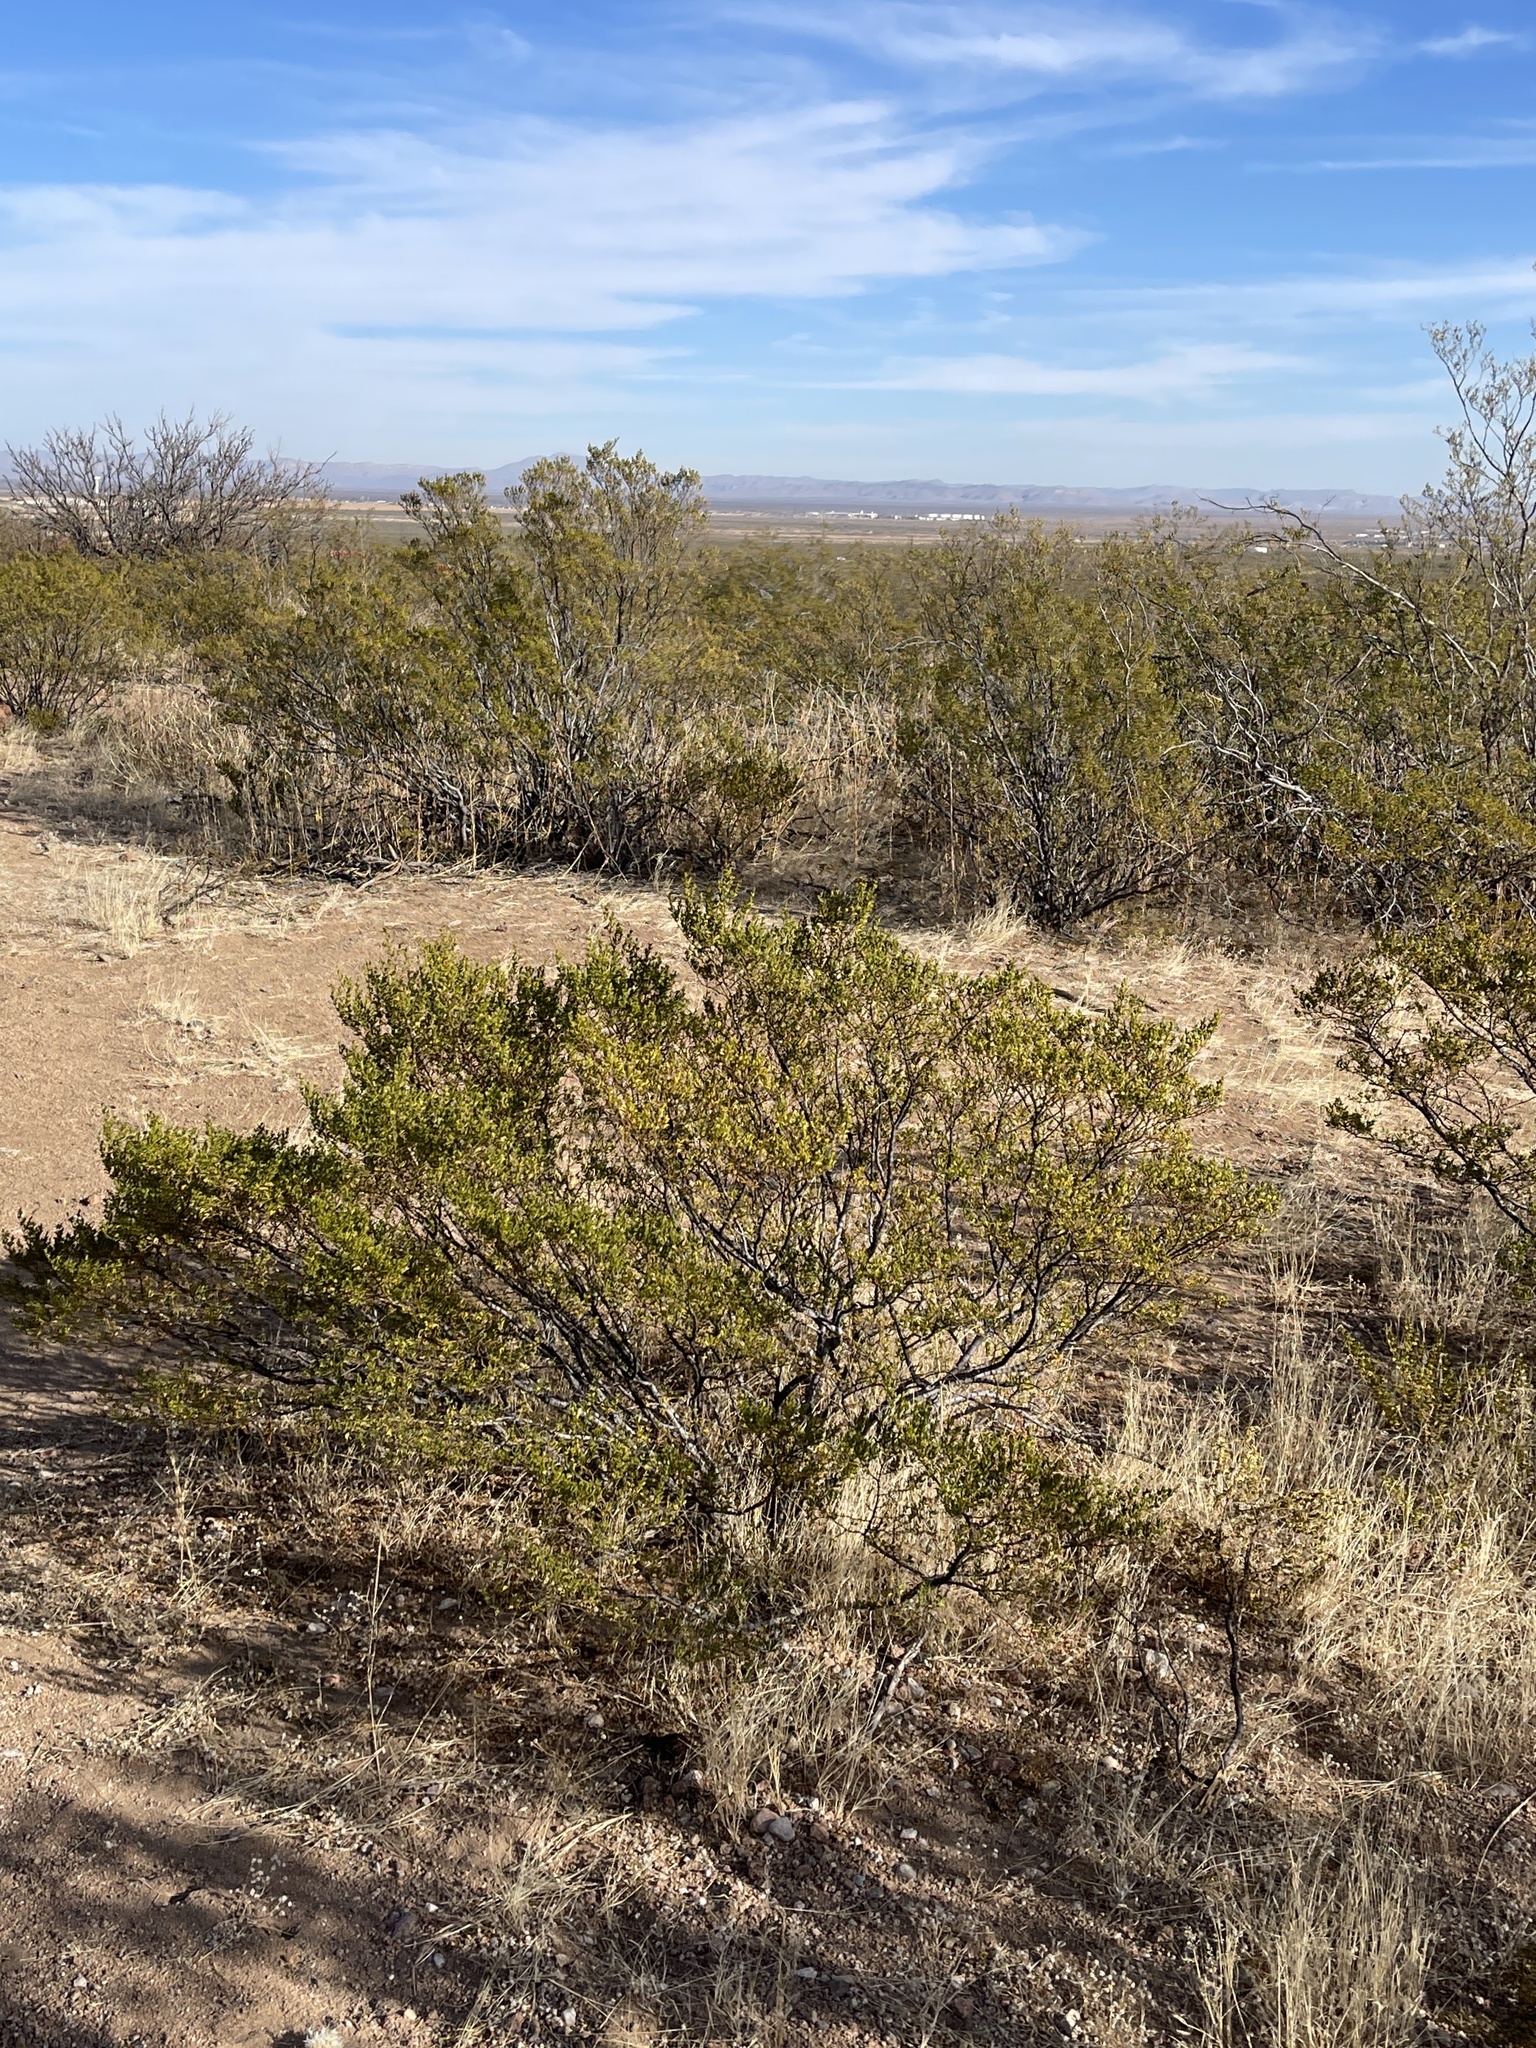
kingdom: Plantae
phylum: Tracheophyta
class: Magnoliopsida
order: Zygophyllales
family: Zygophyllaceae
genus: Larrea
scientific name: Larrea tridentata
